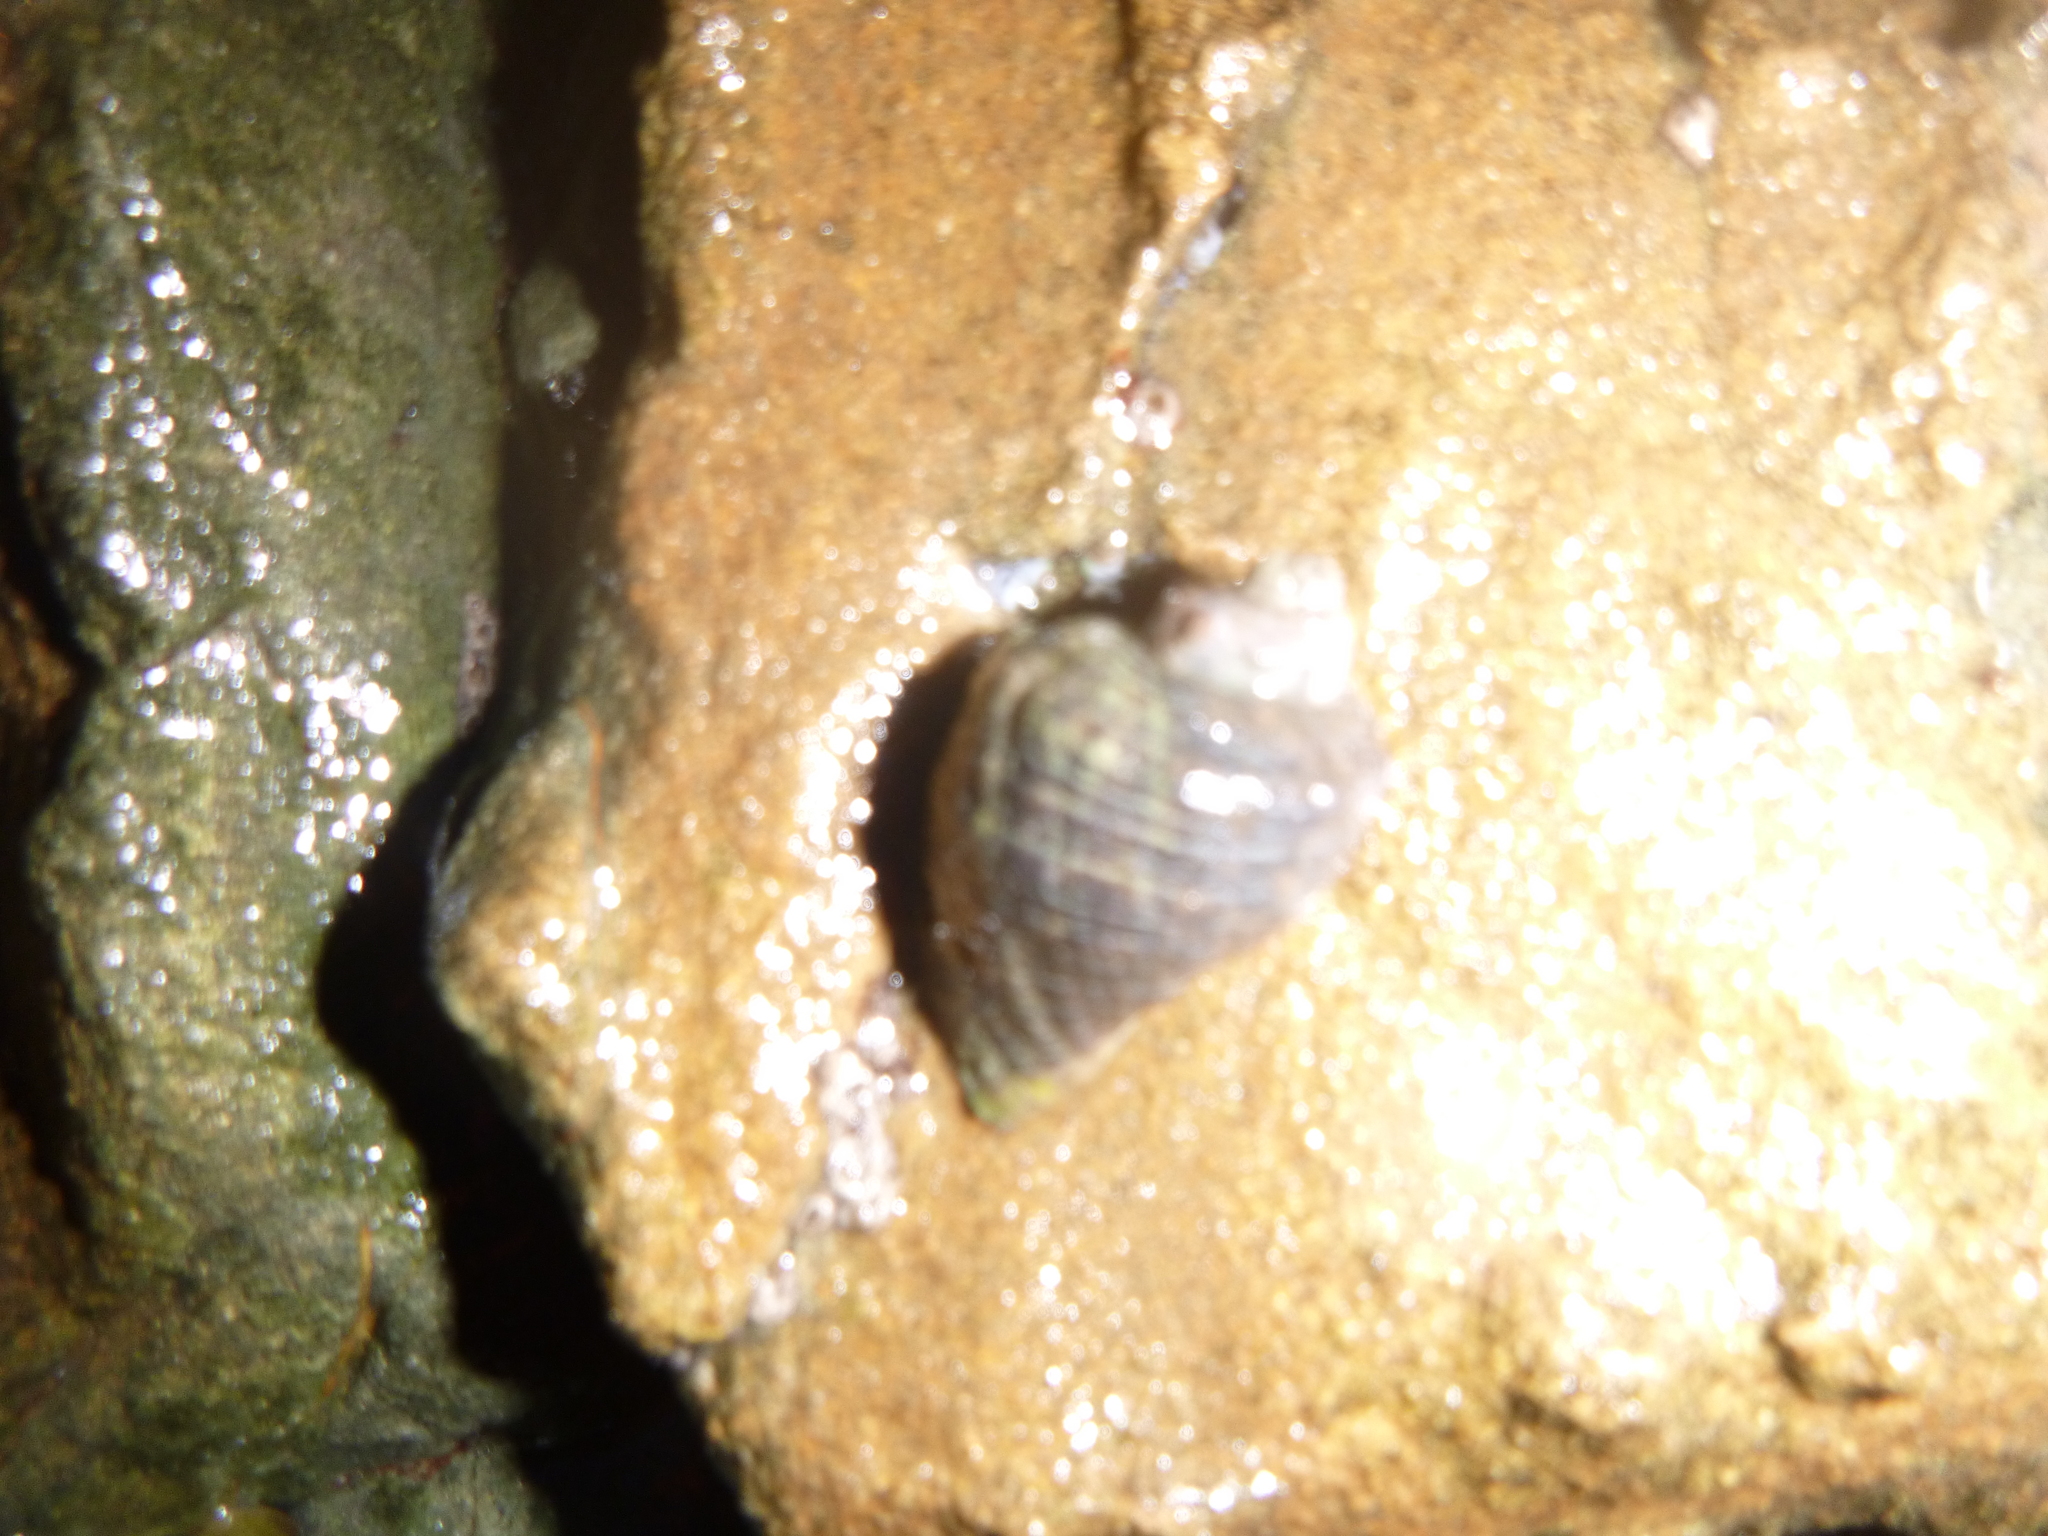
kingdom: Animalia
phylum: Mollusca
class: Gastropoda
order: Neogastropoda
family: Muricidae
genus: Haustrum
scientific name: Haustrum haustorium
